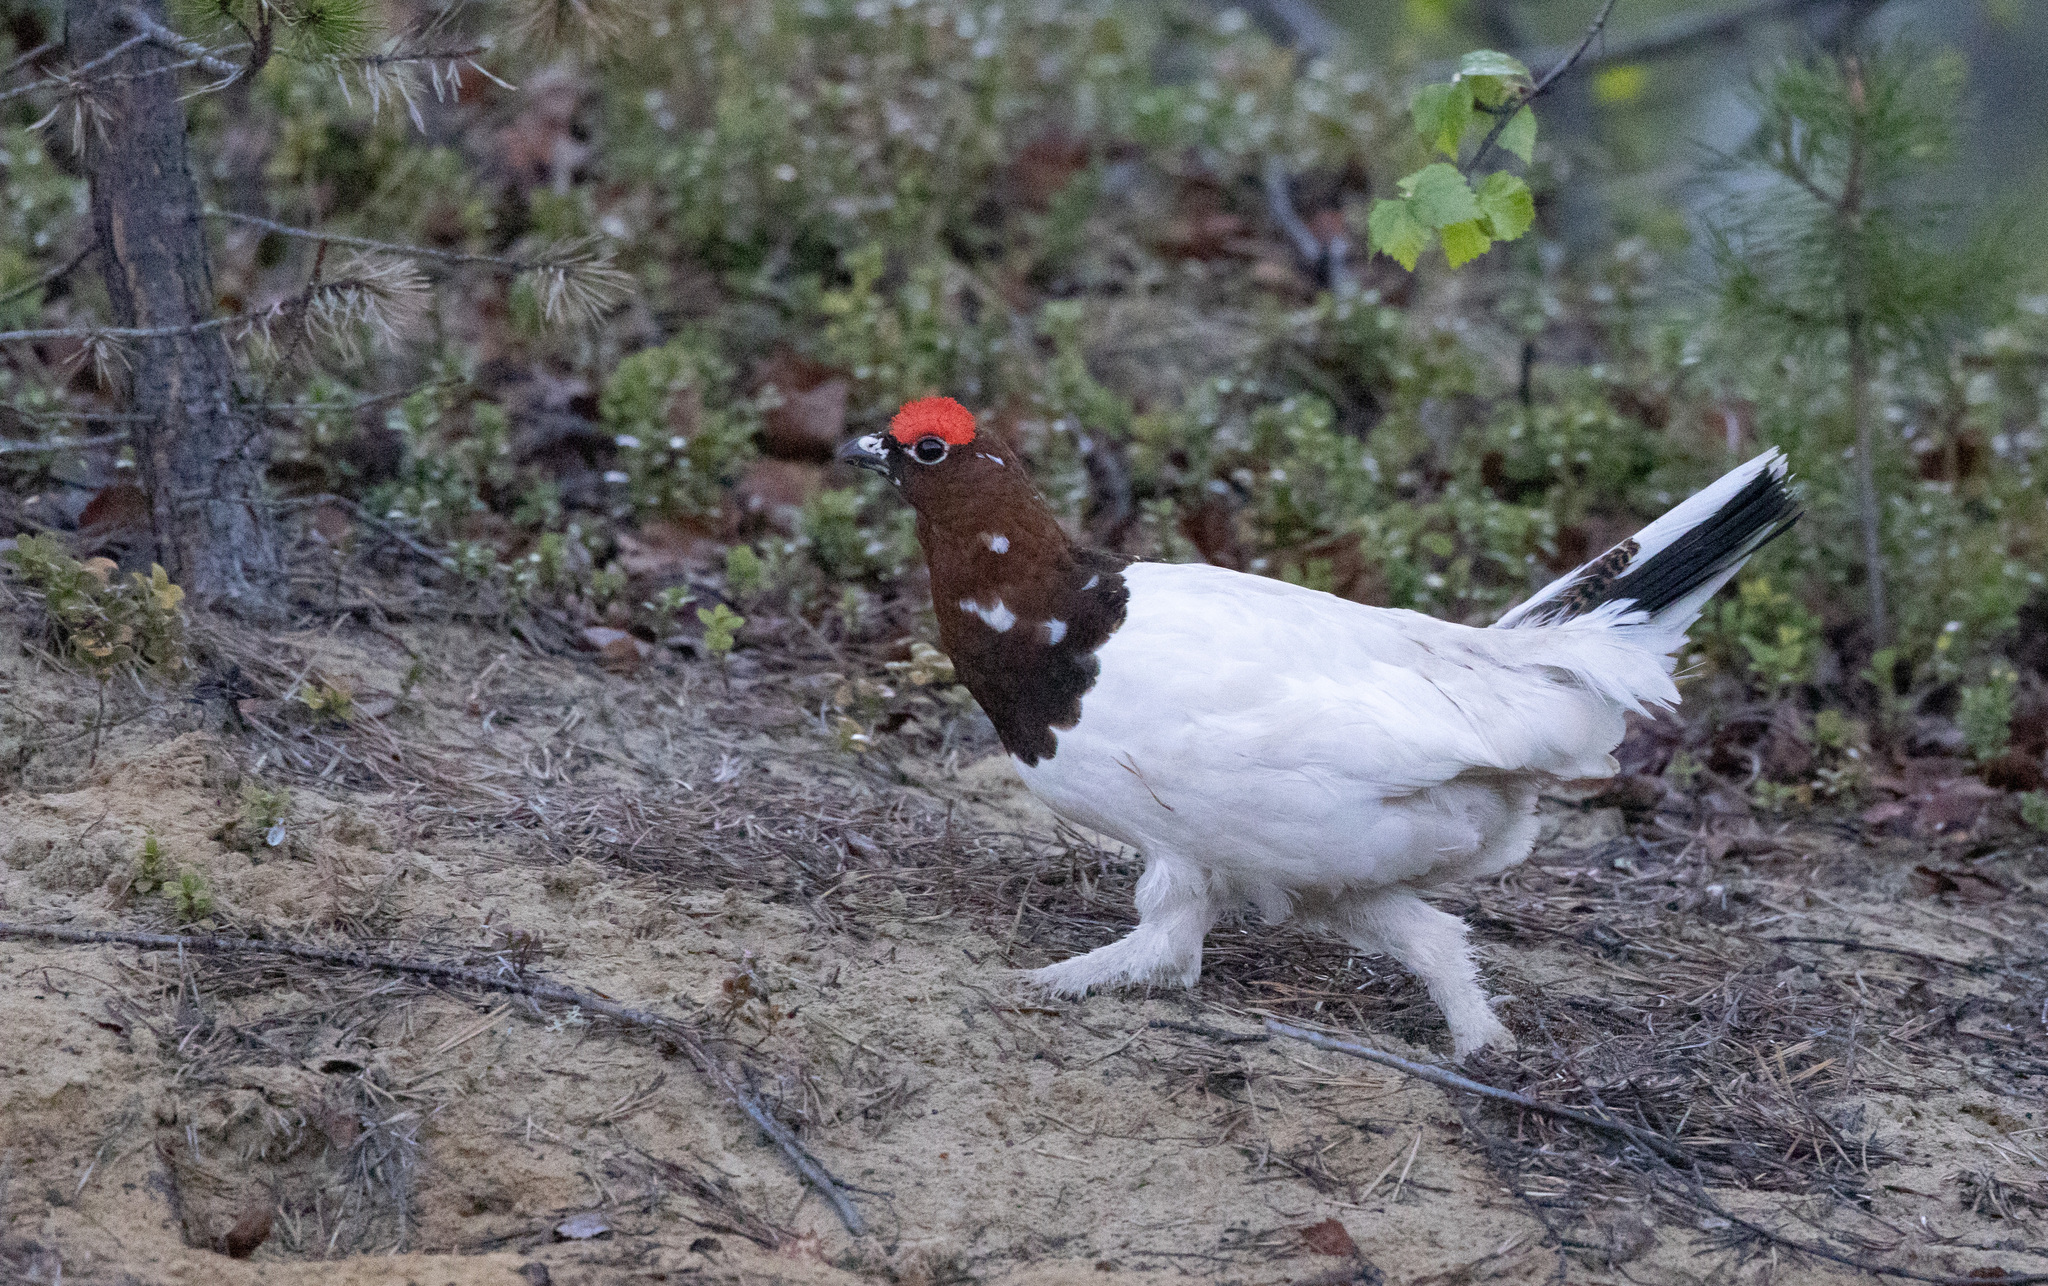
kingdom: Animalia
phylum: Chordata
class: Aves
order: Galliformes
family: Phasianidae
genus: Lagopus
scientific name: Lagopus lagopus
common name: Willow ptarmigan
